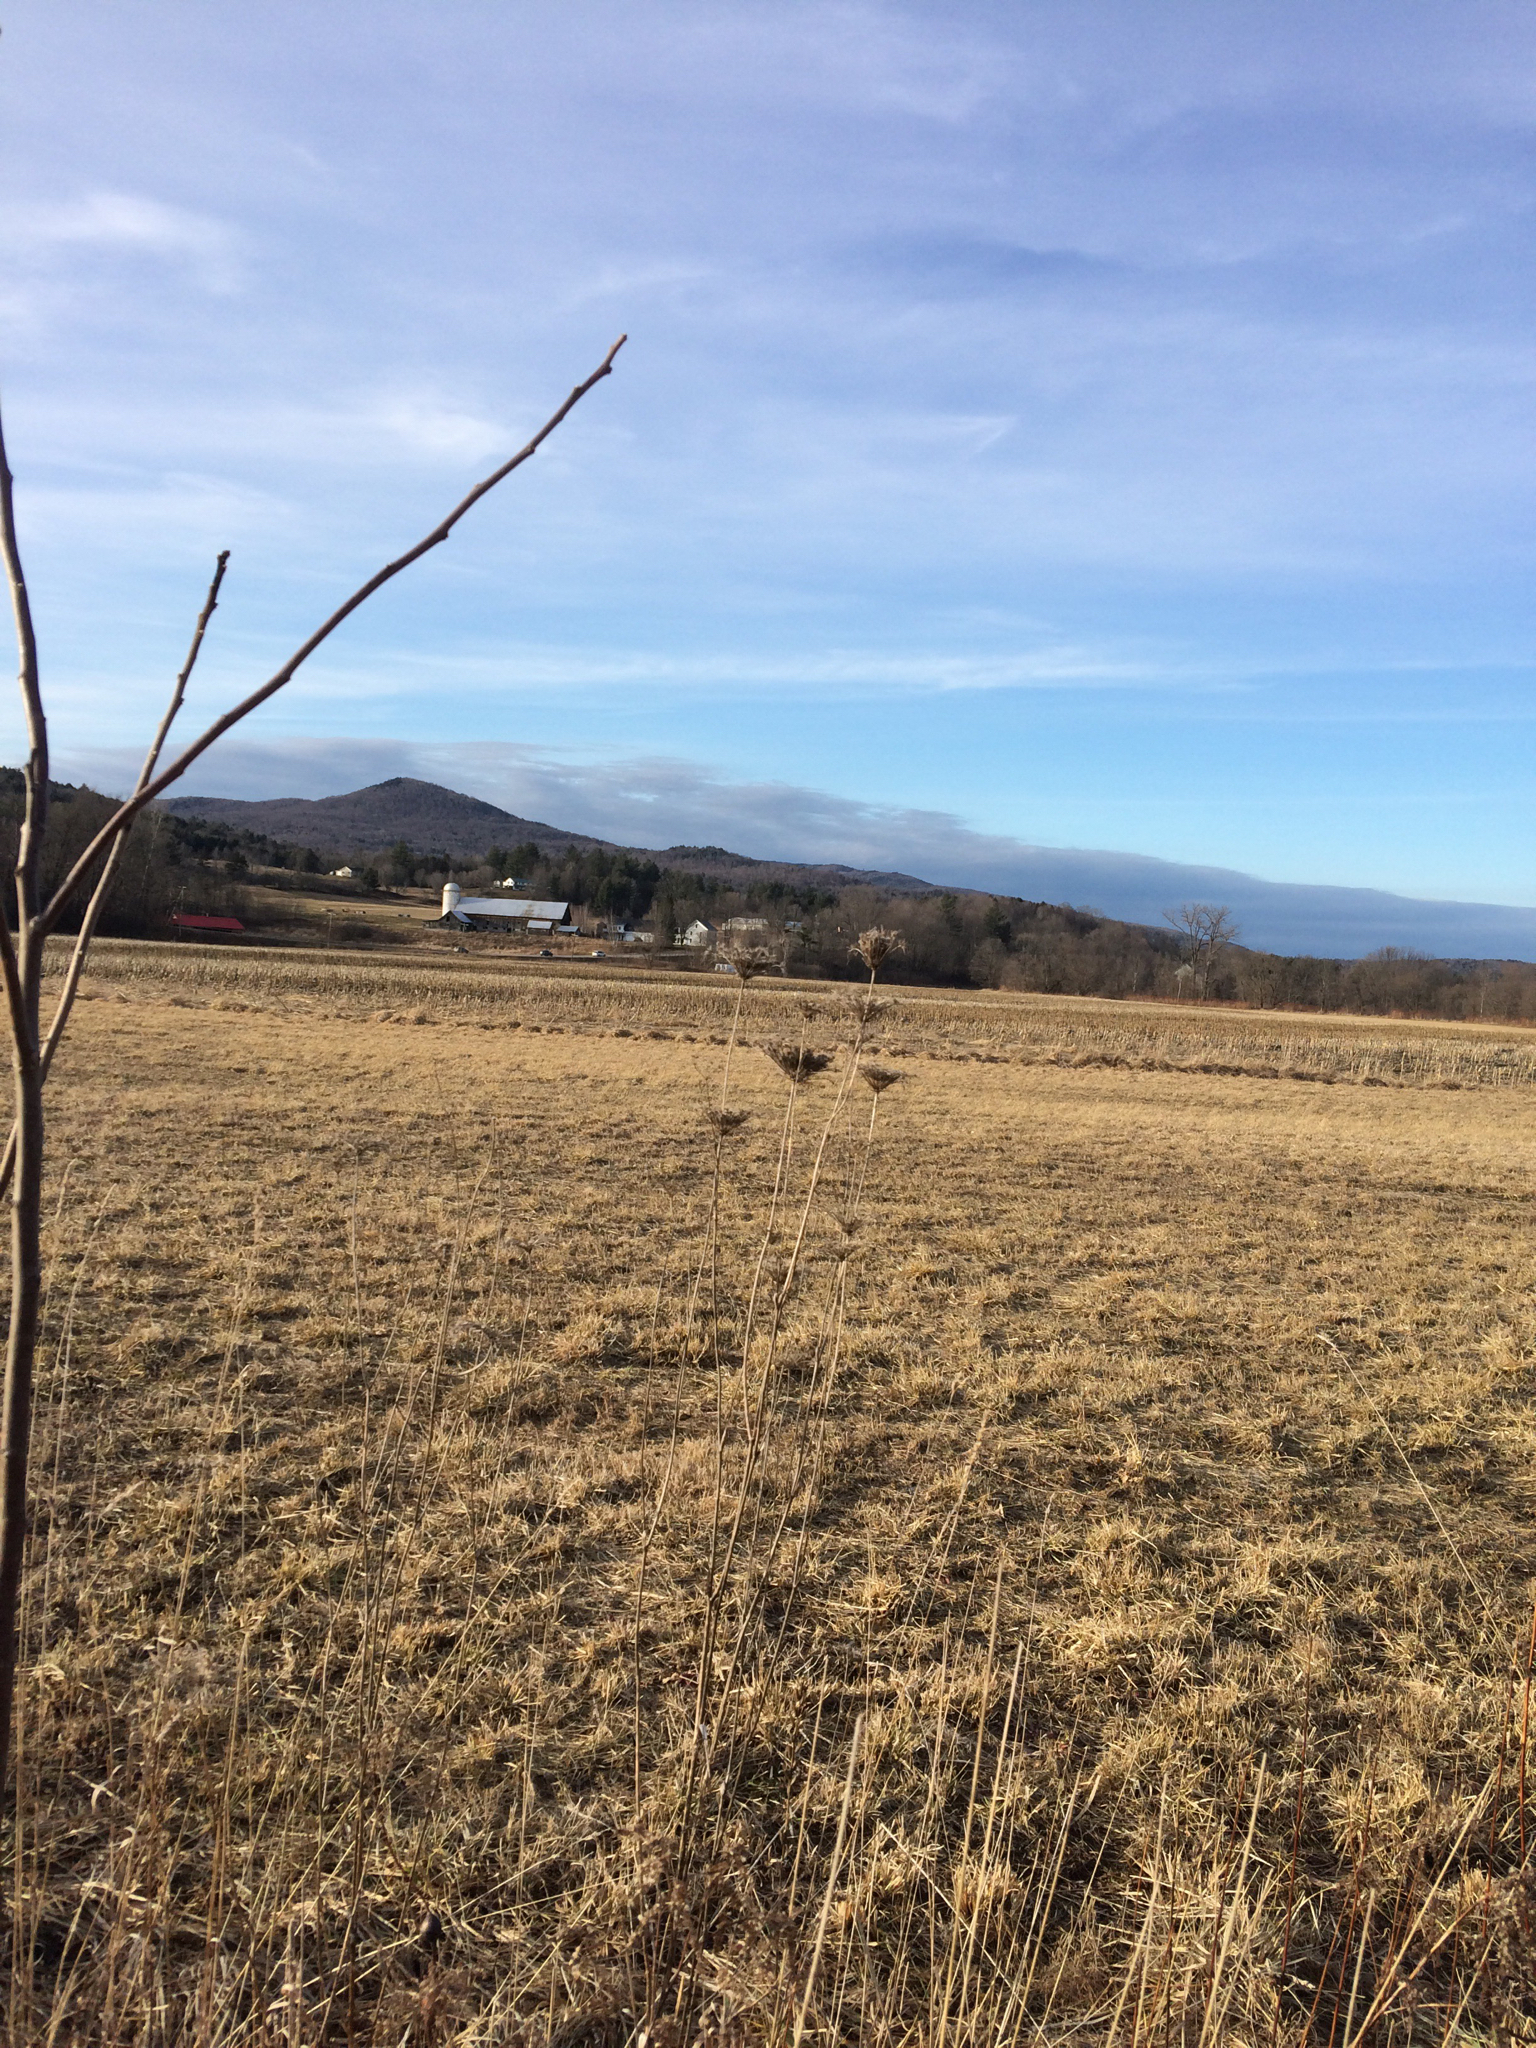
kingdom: Plantae
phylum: Tracheophyta
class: Magnoliopsida
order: Apiales
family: Apiaceae
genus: Daucus
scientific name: Daucus carota
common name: Wild carrot
